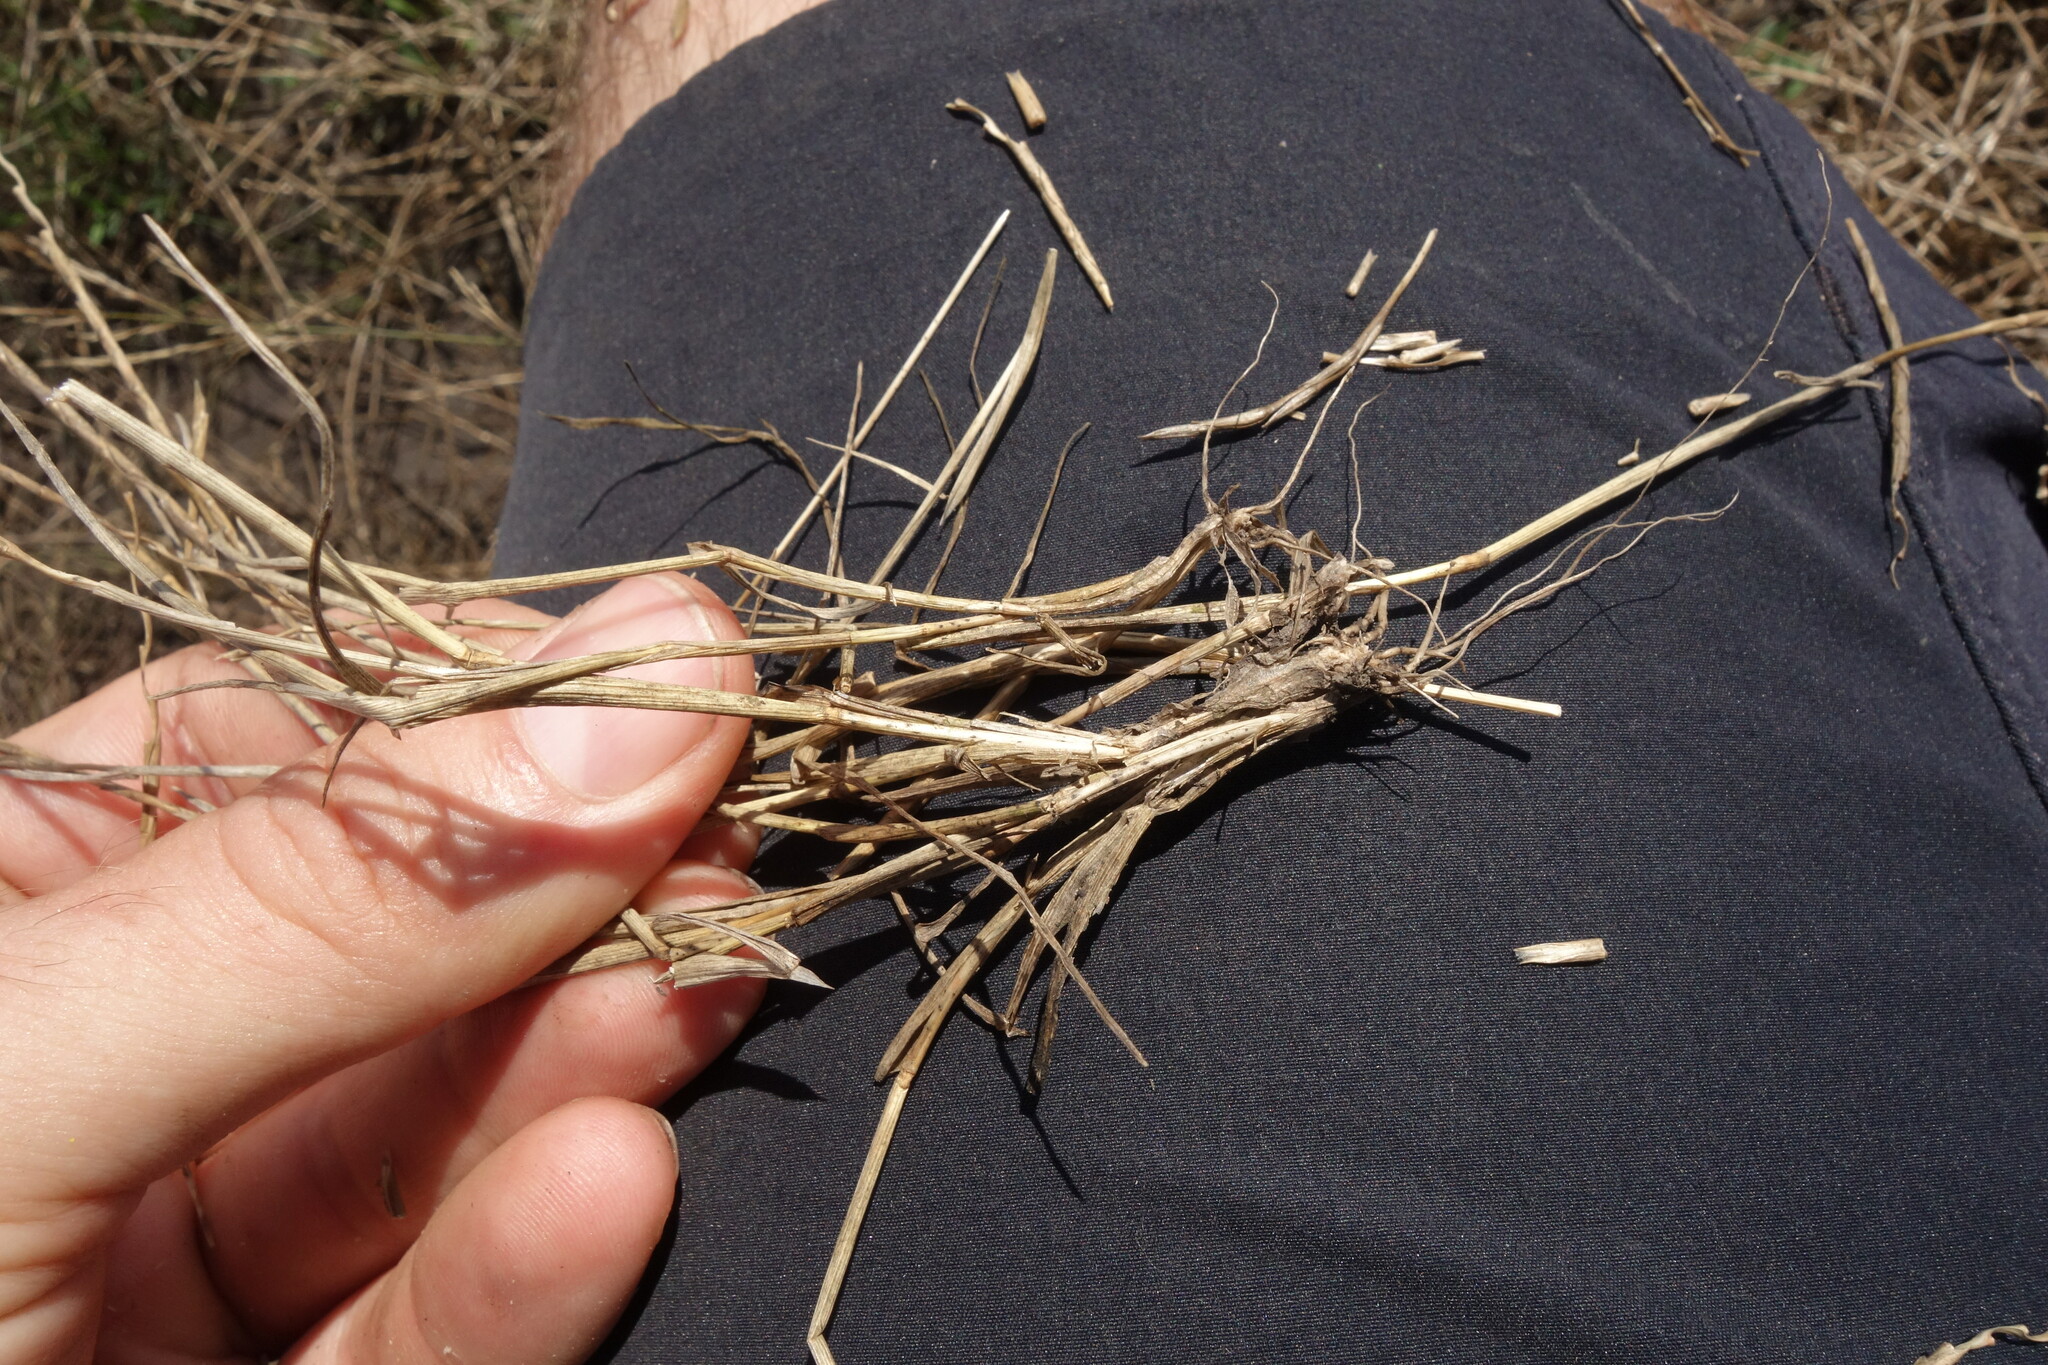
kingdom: Plantae
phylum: Tracheophyta
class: Liliopsida
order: Poales
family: Poaceae
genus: Pholiurus
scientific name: Pholiurus pannonicus
